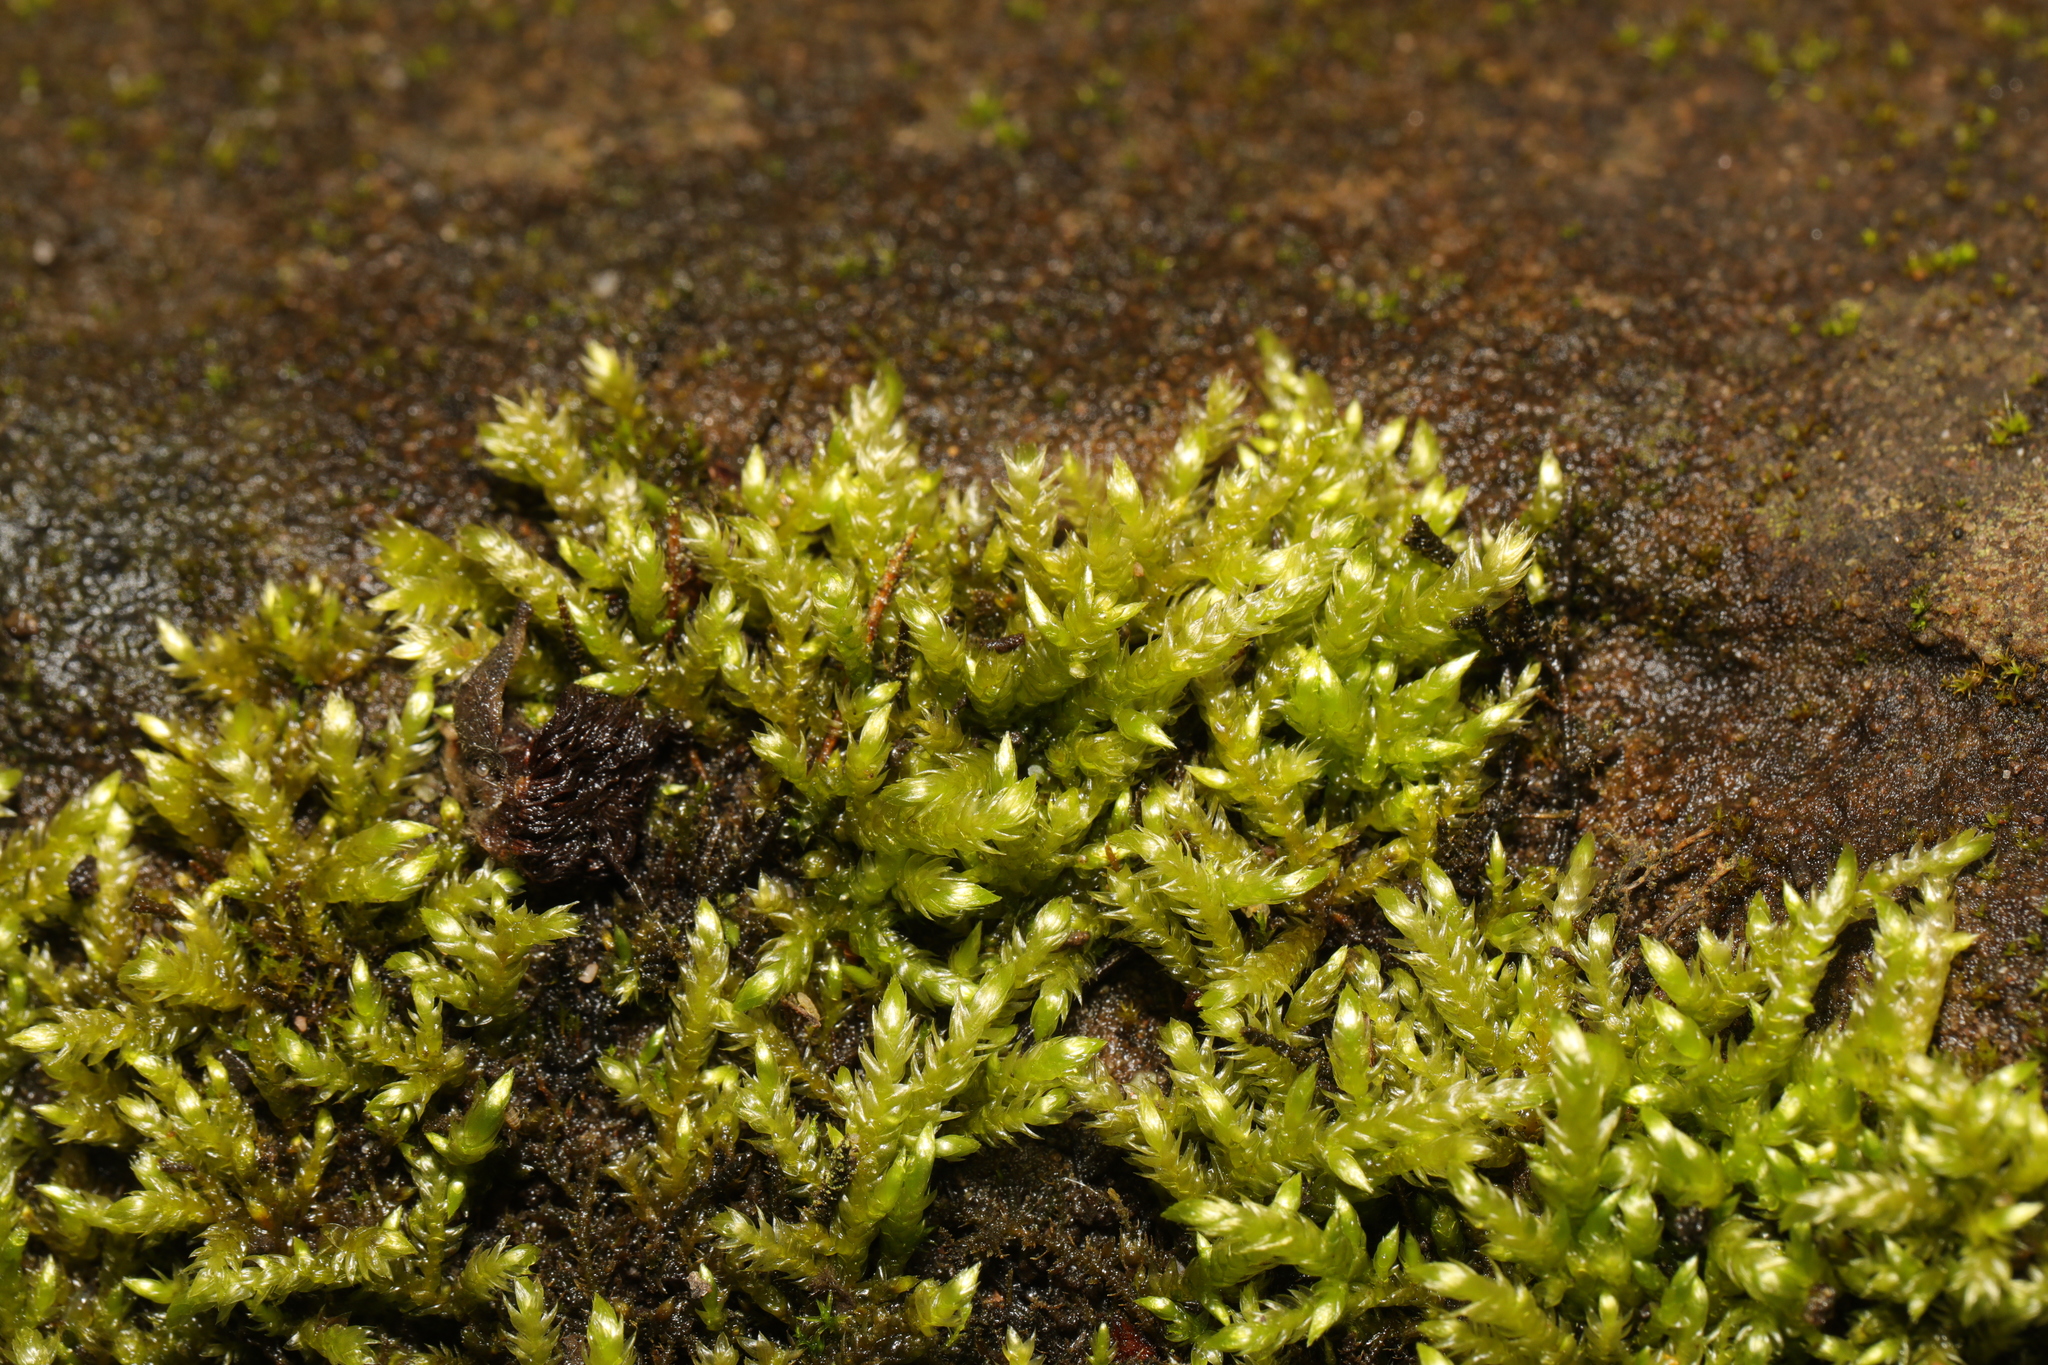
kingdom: Plantae
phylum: Bryophyta
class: Bryopsida
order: Hypnales
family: Brachytheciaceae
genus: Brachythecium
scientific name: Brachythecium rutabulum
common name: Rough-stalked feather-moss
